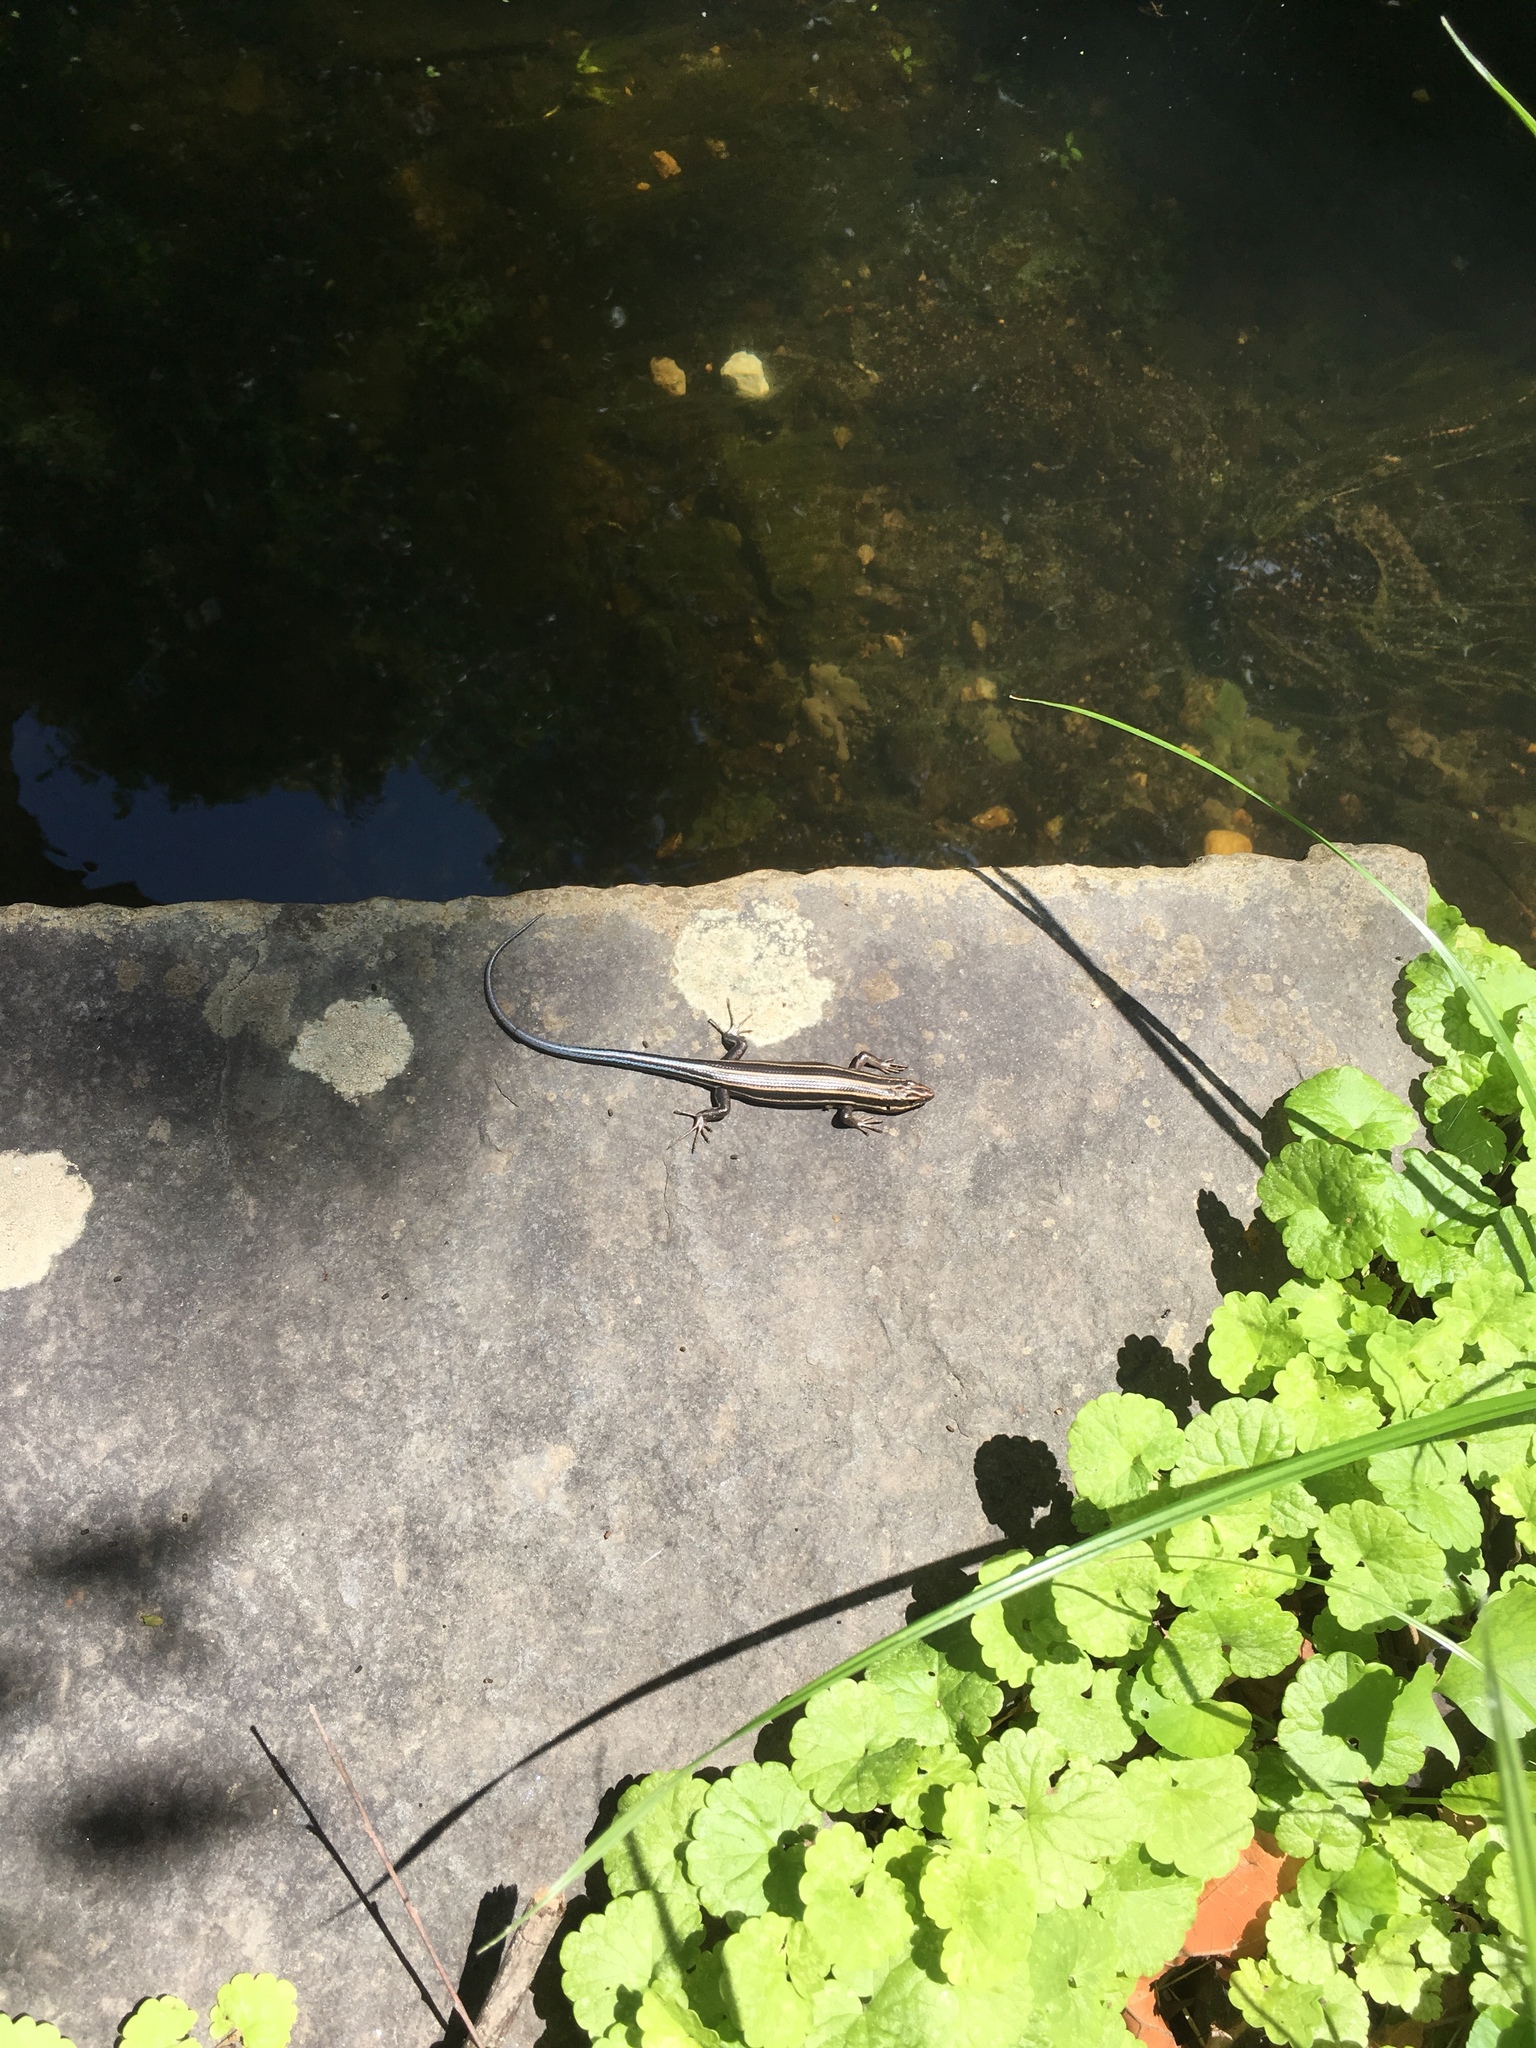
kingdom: Animalia
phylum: Chordata
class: Squamata
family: Scincidae
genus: Plestiodon
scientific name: Plestiodon fasciatus
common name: Five-lined skink
